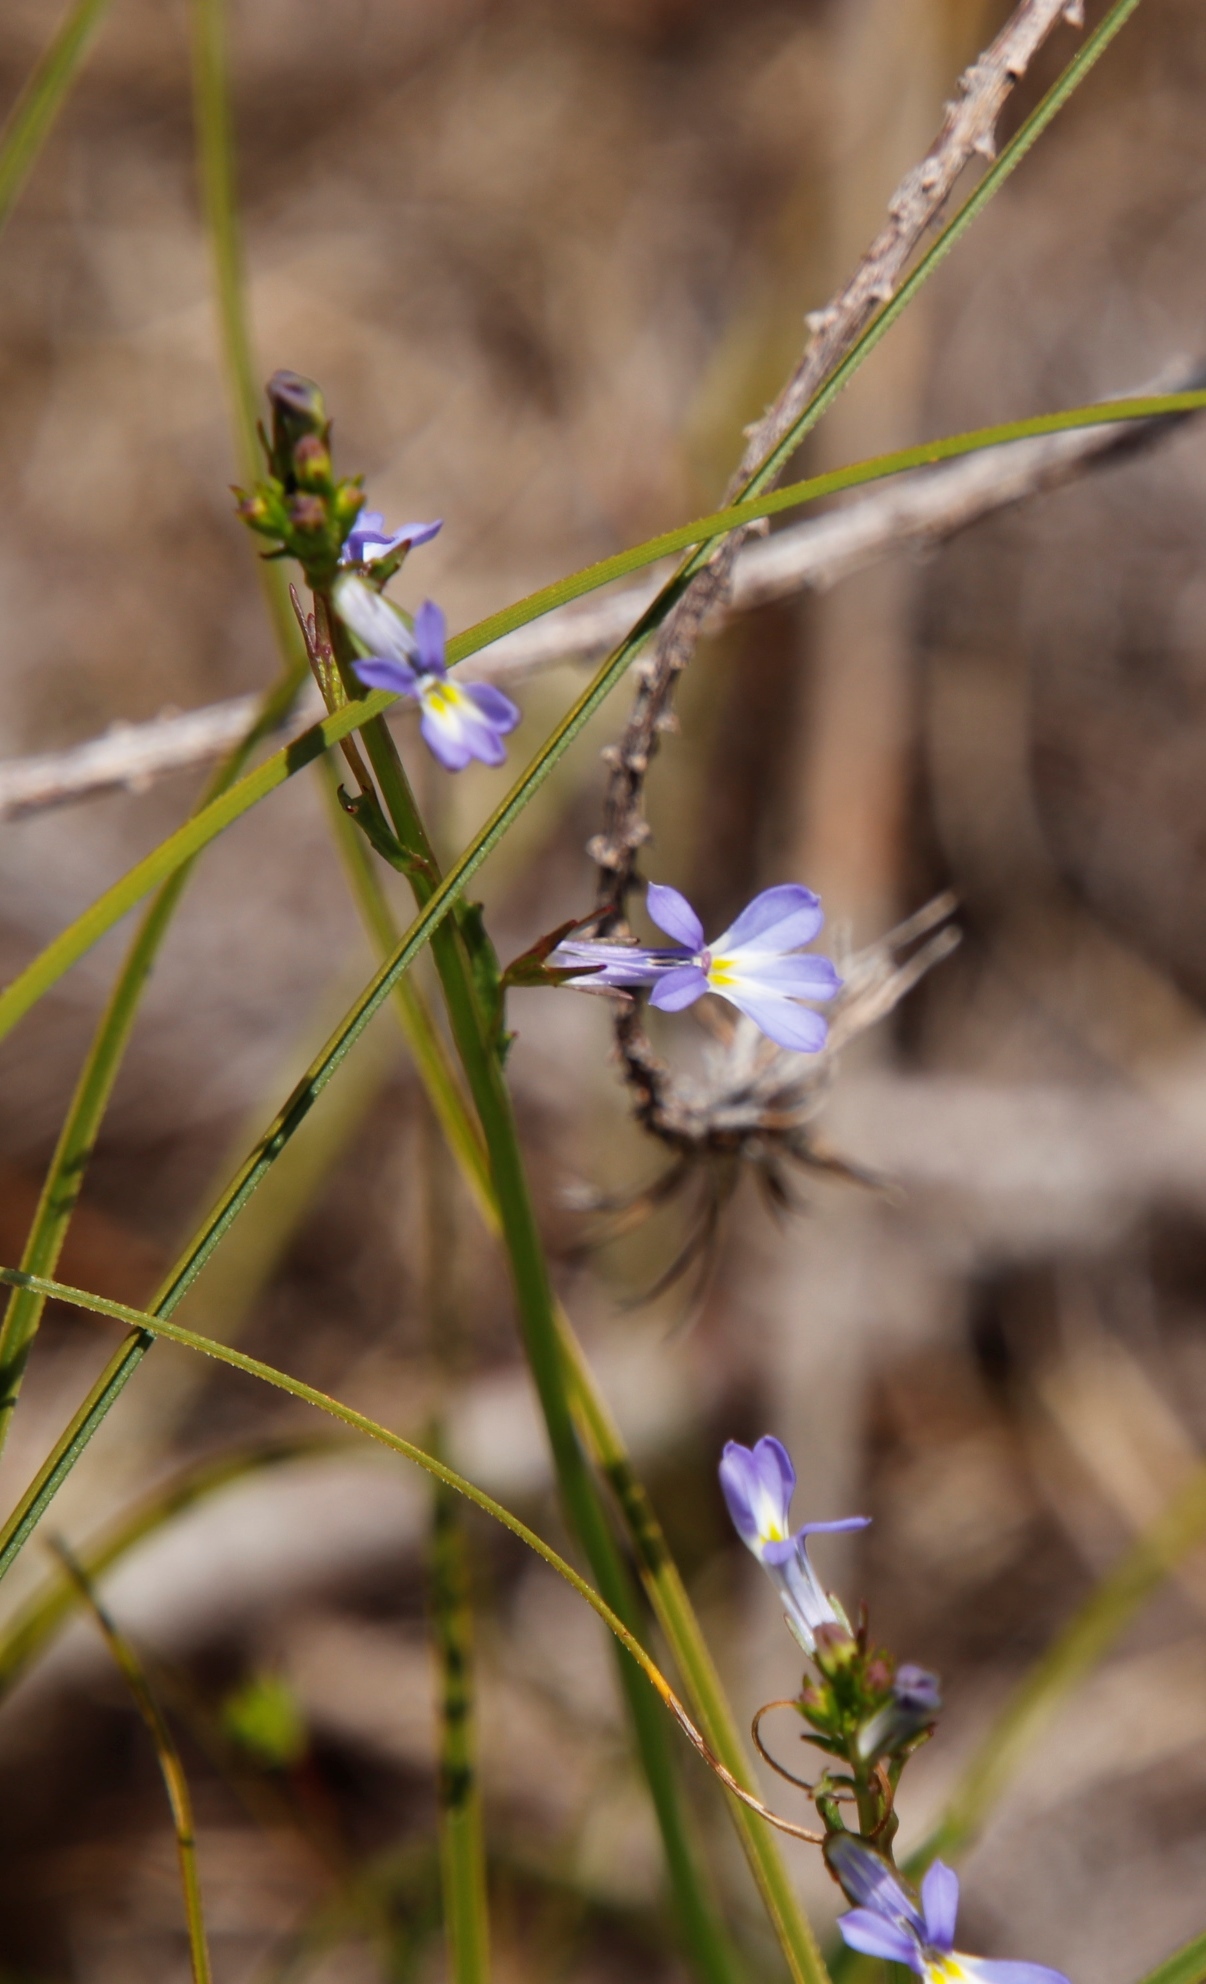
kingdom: Plantae
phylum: Tracheophyta
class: Magnoliopsida
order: Asterales
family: Campanulaceae
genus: Lobelia
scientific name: Lobelia comosa
